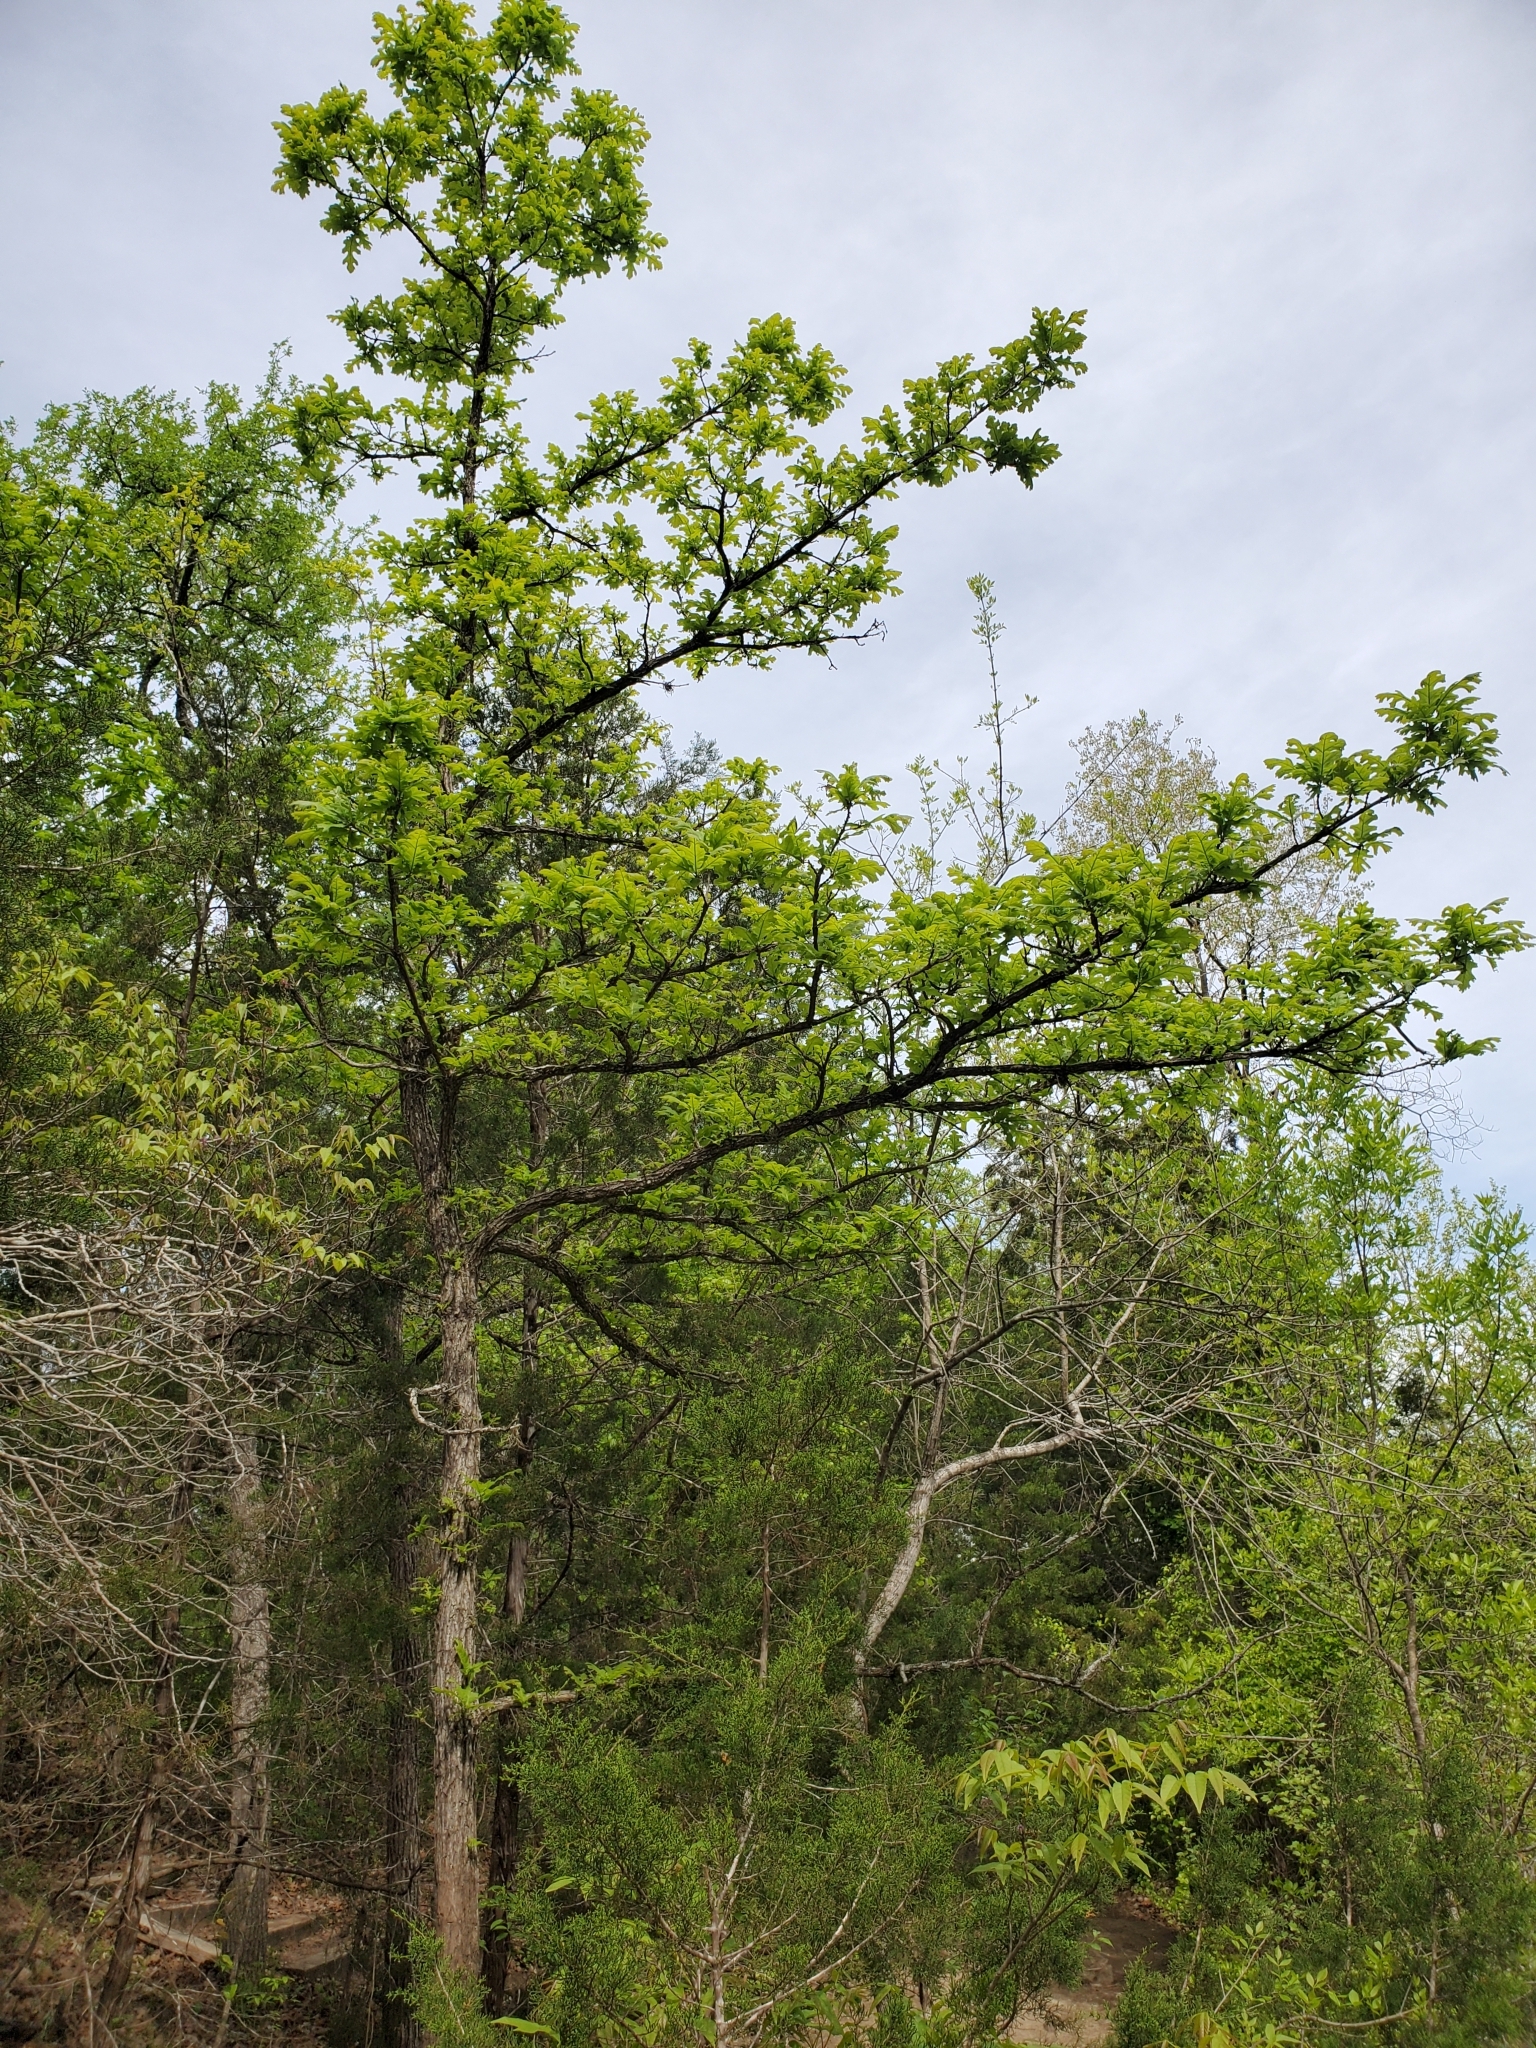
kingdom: Plantae
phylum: Tracheophyta
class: Magnoliopsida
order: Fagales
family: Fagaceae
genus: Quercus
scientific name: Quercus macrocarpa
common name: Bur oak
